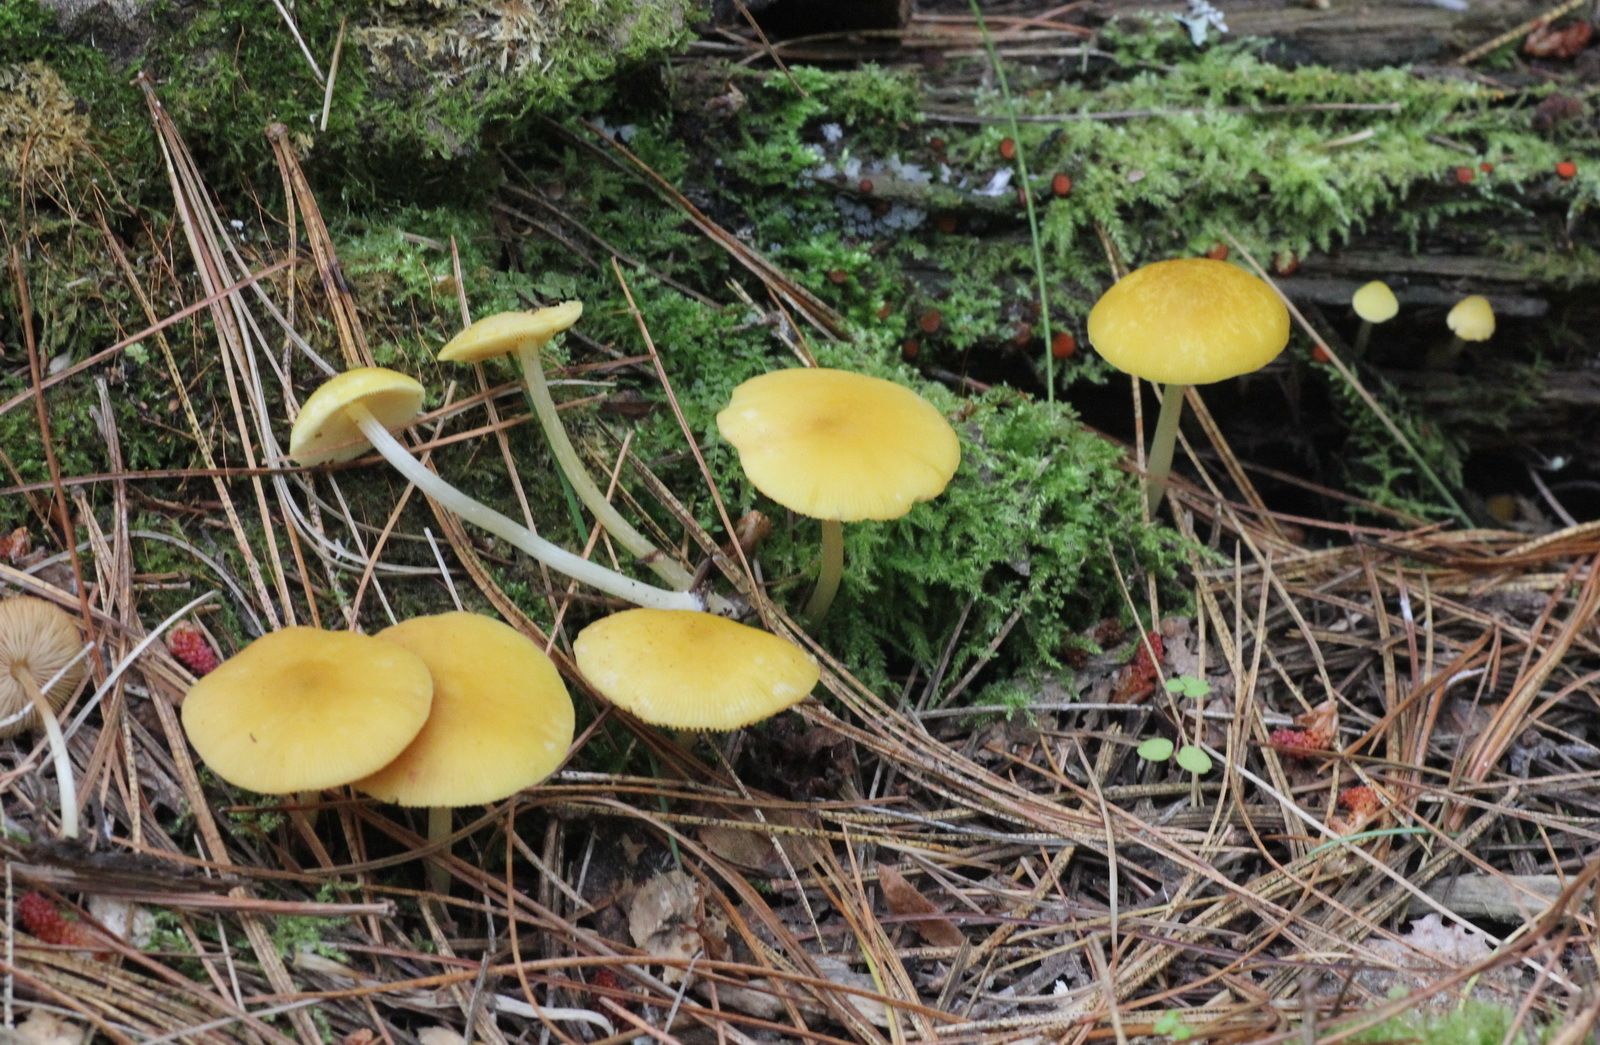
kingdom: Fungi
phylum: Basidiomycota
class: Agaricomycetes
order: Agaricales
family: Pluteaceae
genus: Pluteus
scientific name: Pluteus chrysophaeus
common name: Yellow shield
